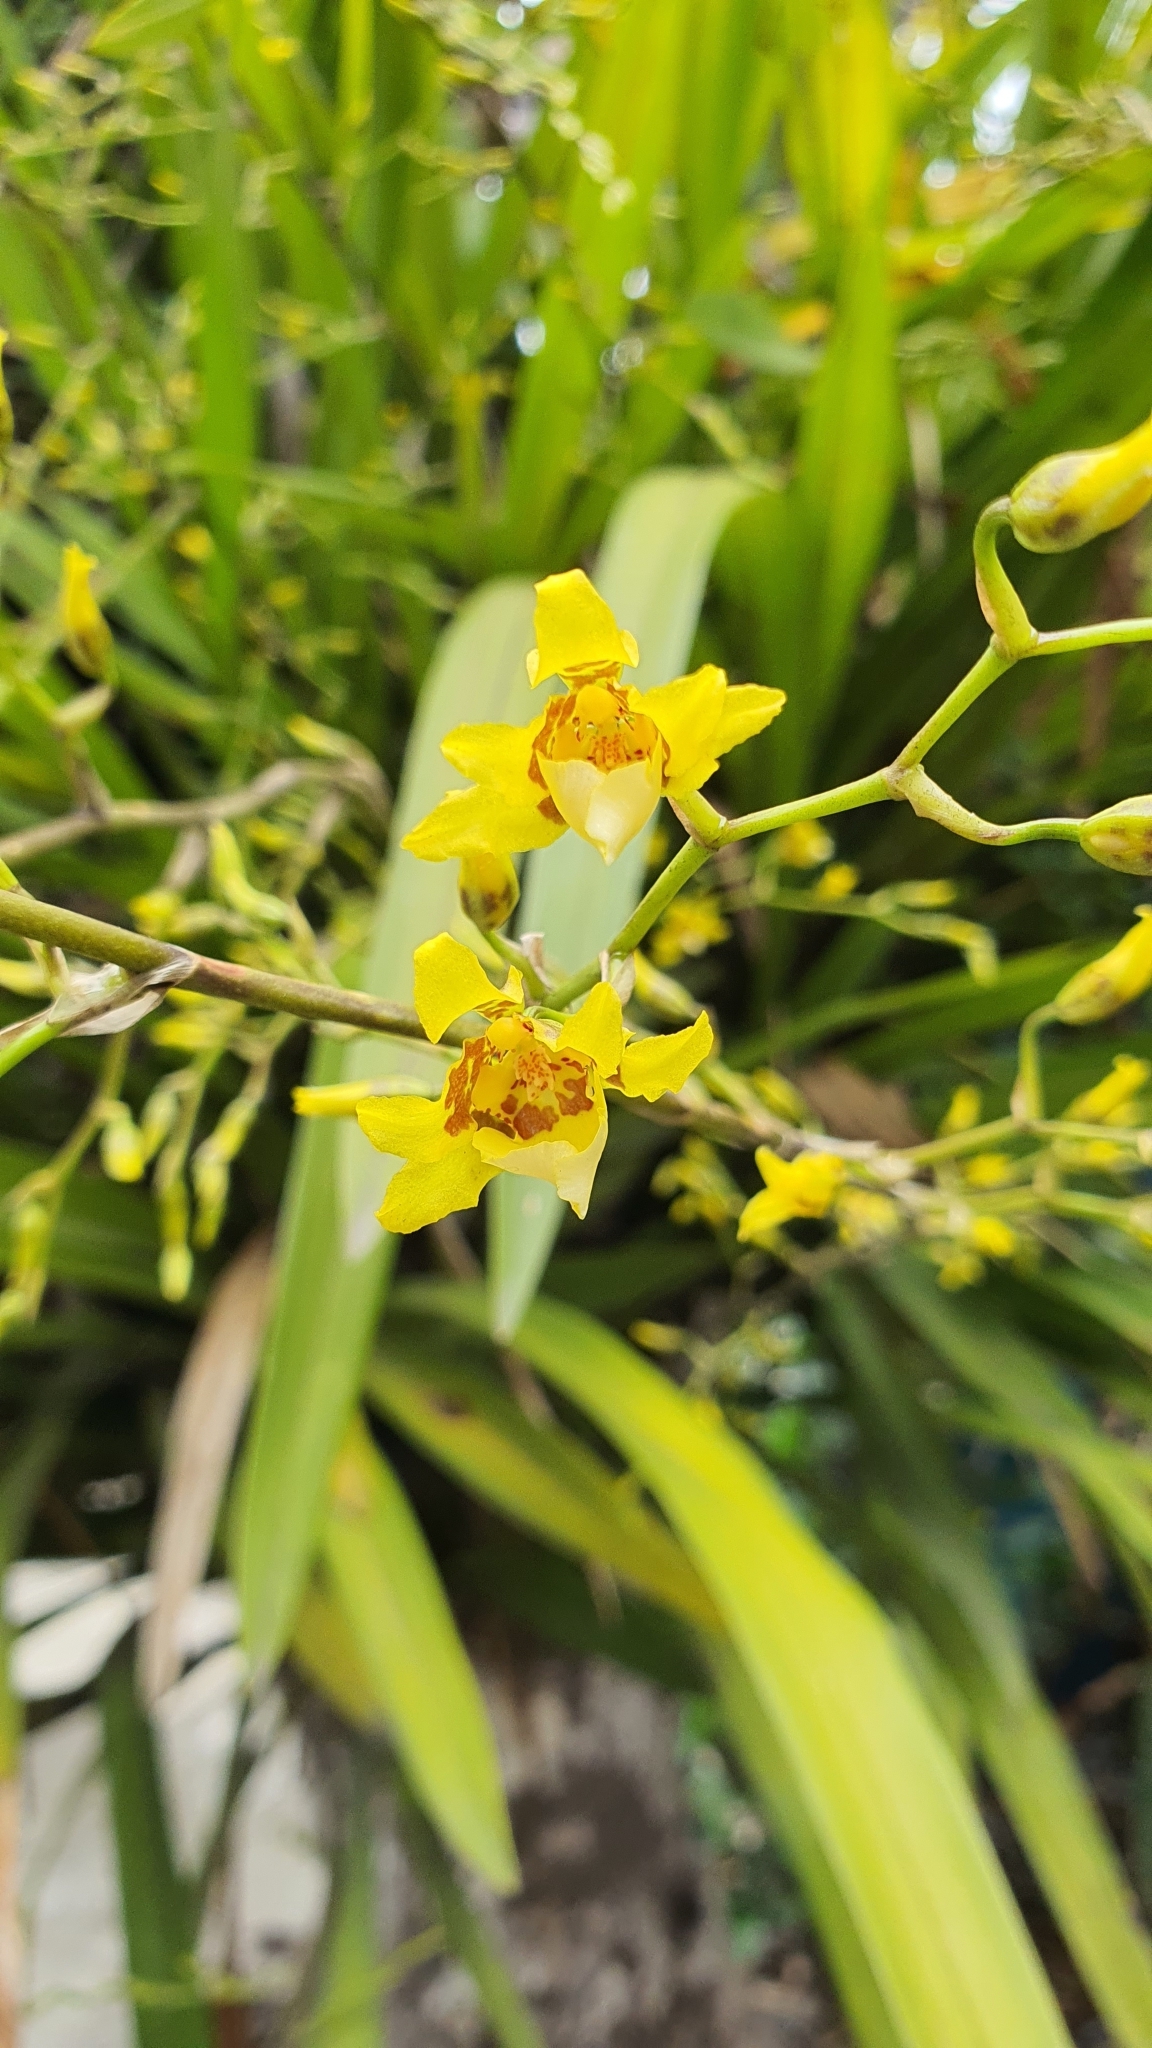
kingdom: Plantae
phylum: Tracheophyta
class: Liliopsida
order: Asparagales
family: Orchidaceae
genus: Oncidium
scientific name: Oncidium sphacelatum
